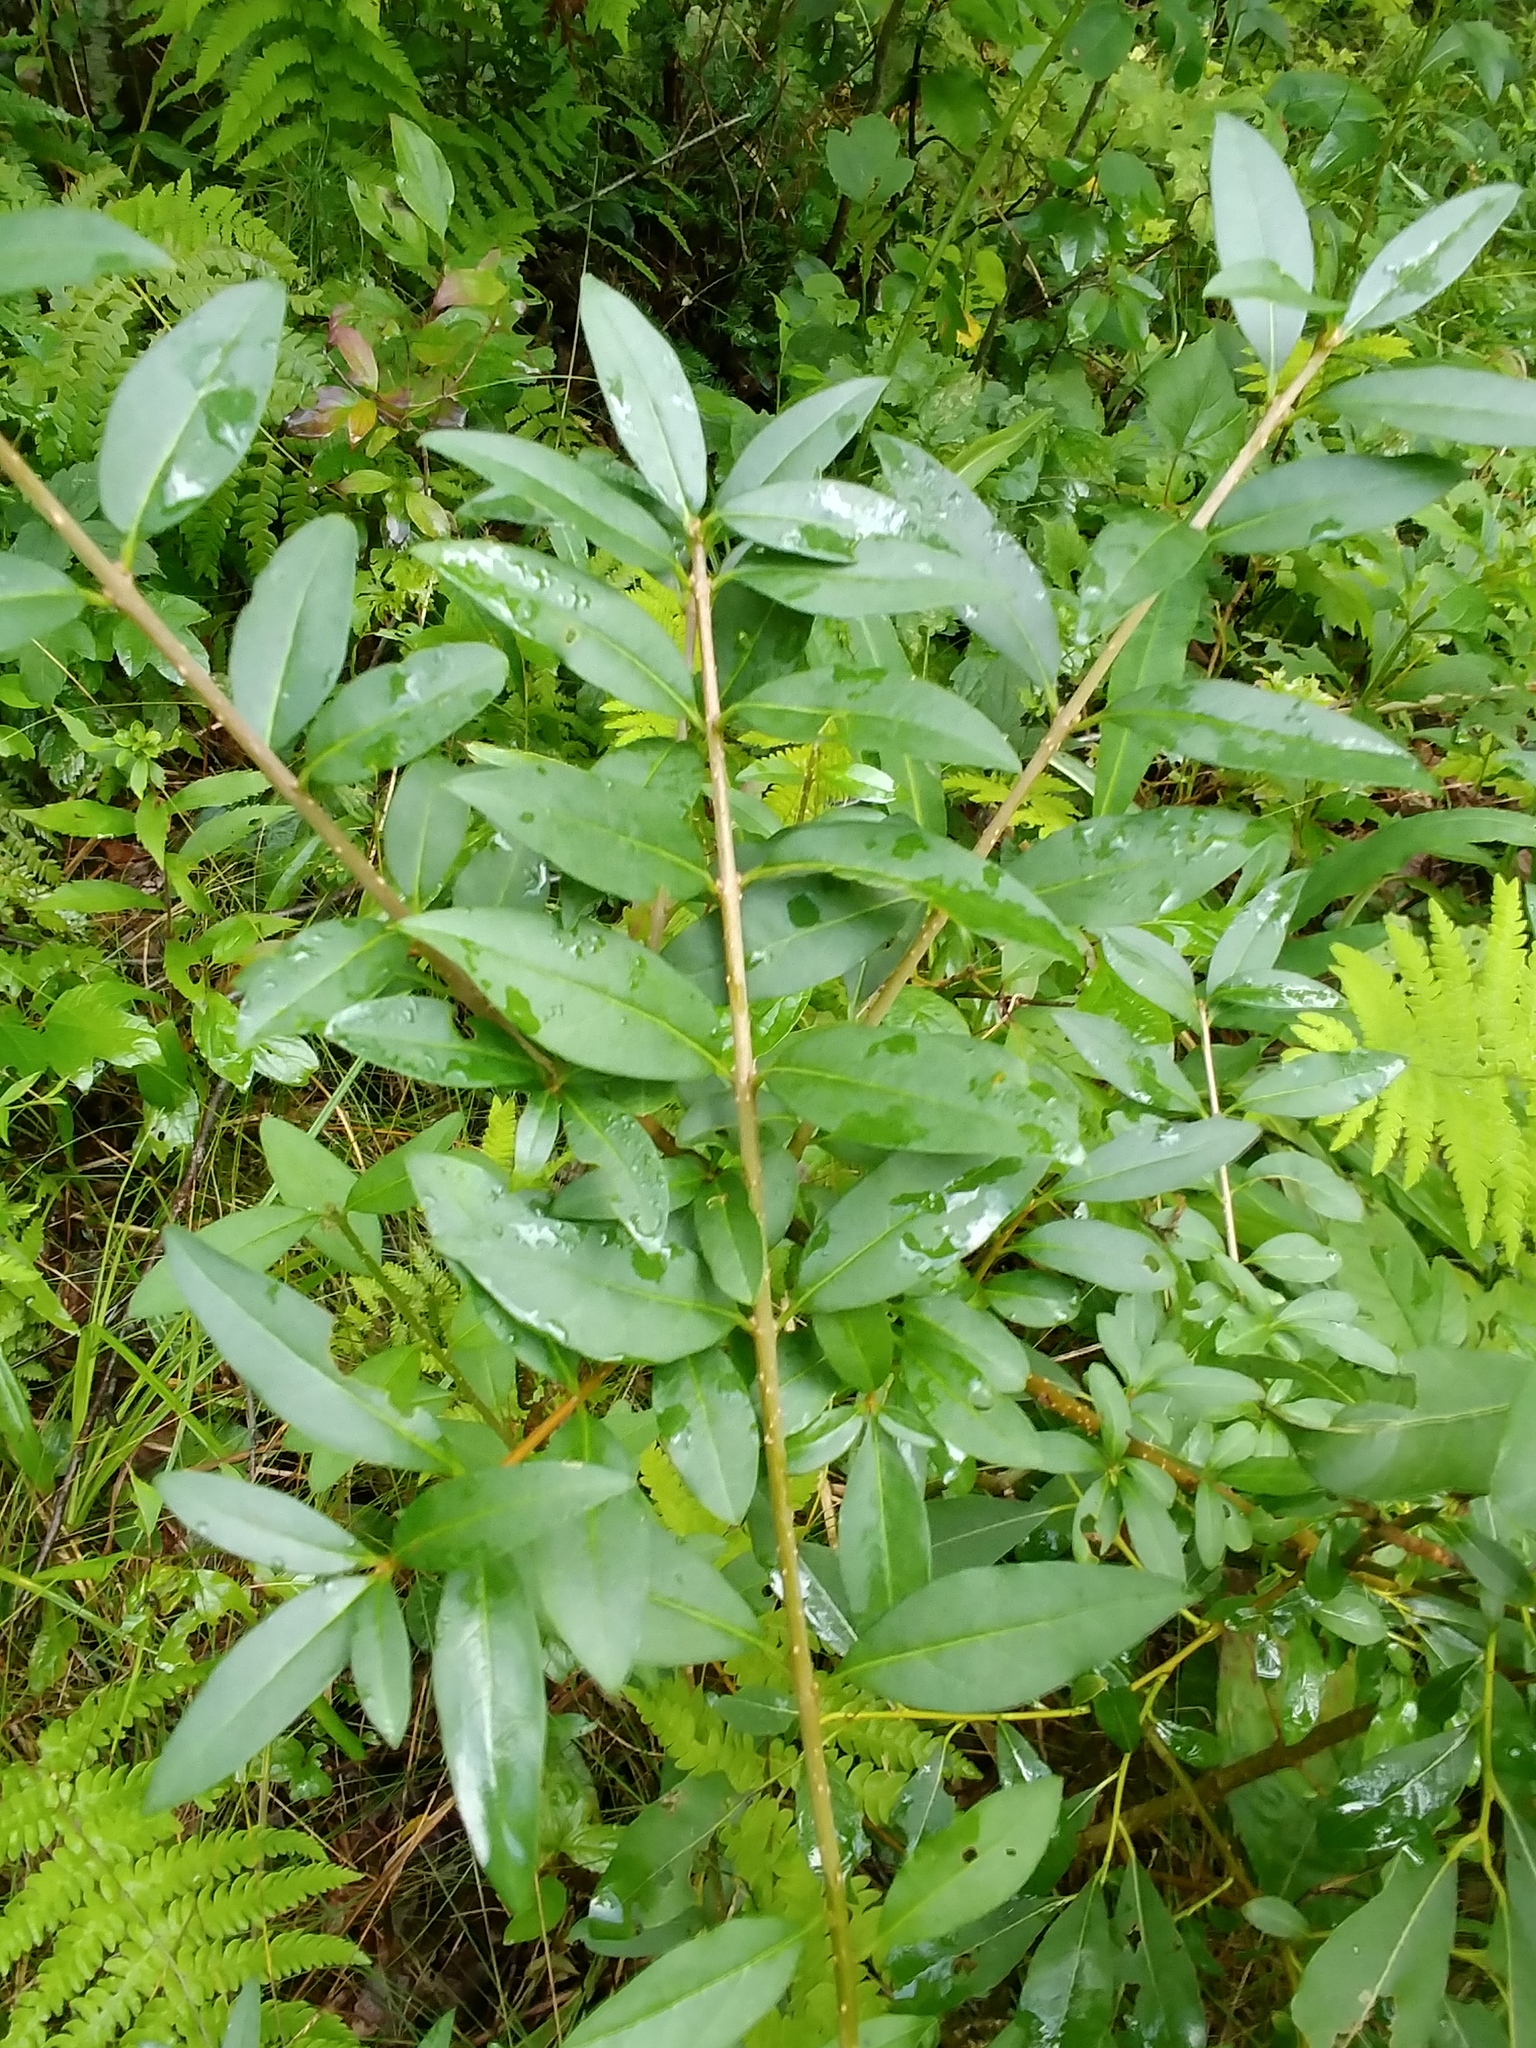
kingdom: Plantae
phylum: Tracheophyta
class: Magnoliopsida
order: Lamiales
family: Oleaceae
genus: Ligustrum
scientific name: Ligustrum vulgare
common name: Wild privet
